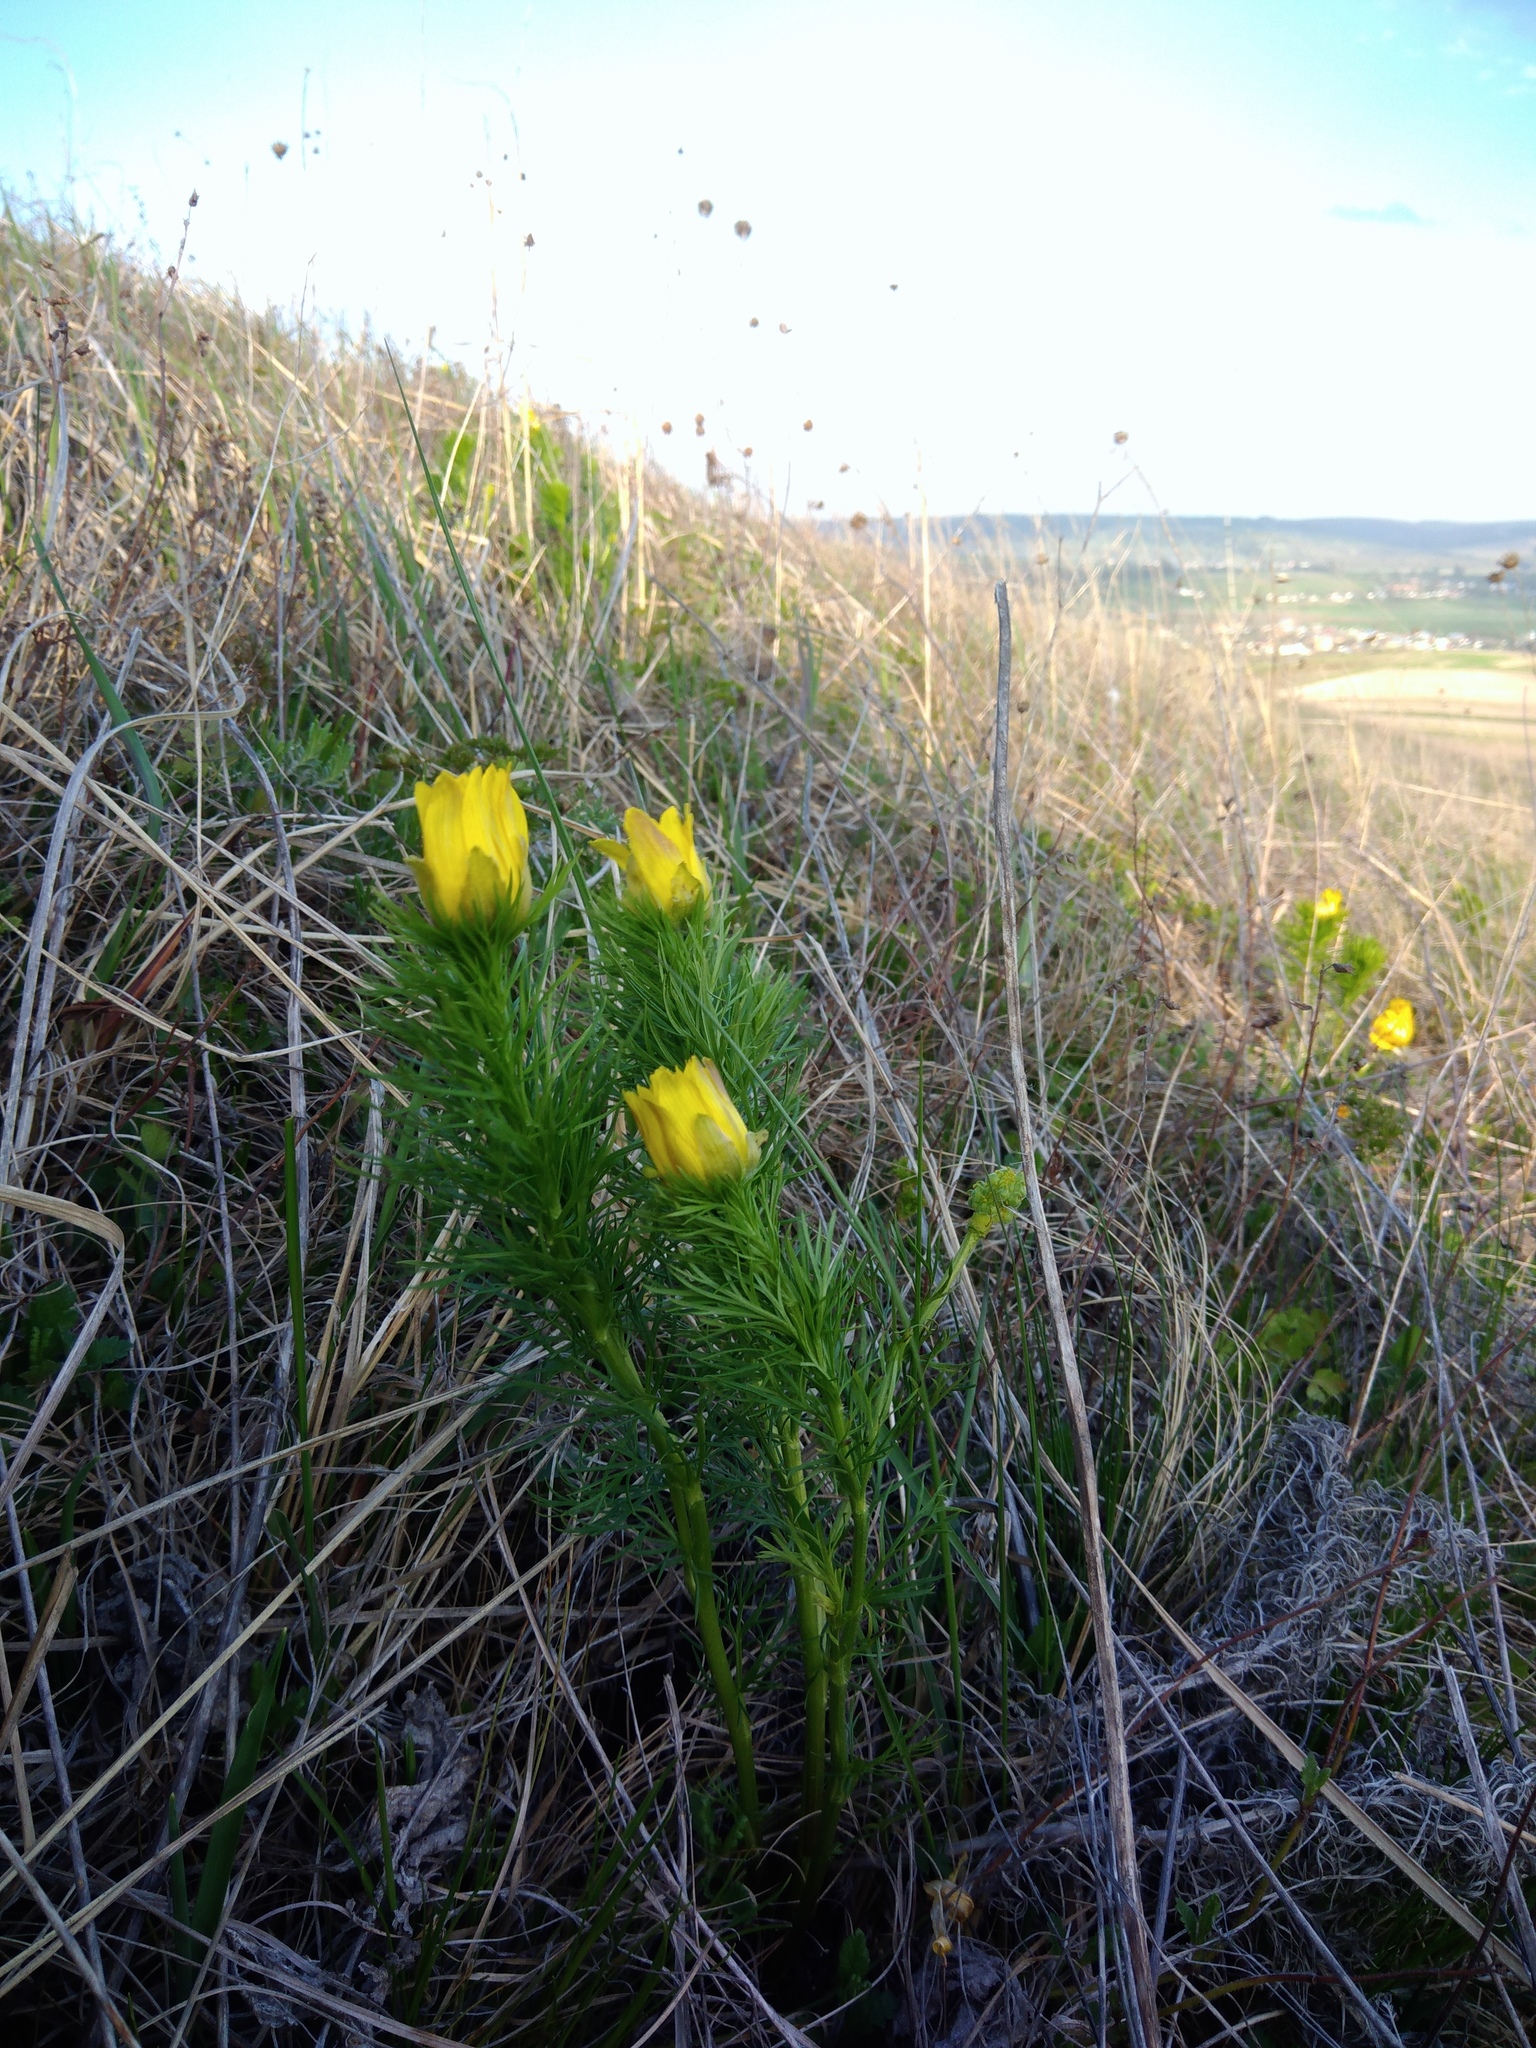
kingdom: Plantae
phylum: Tracheophyta
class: Magnoliopsida
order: Ranunculales
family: Ranunculaceae
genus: Adonis
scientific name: Adonis vernalis
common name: Yellow pheasants-eye
